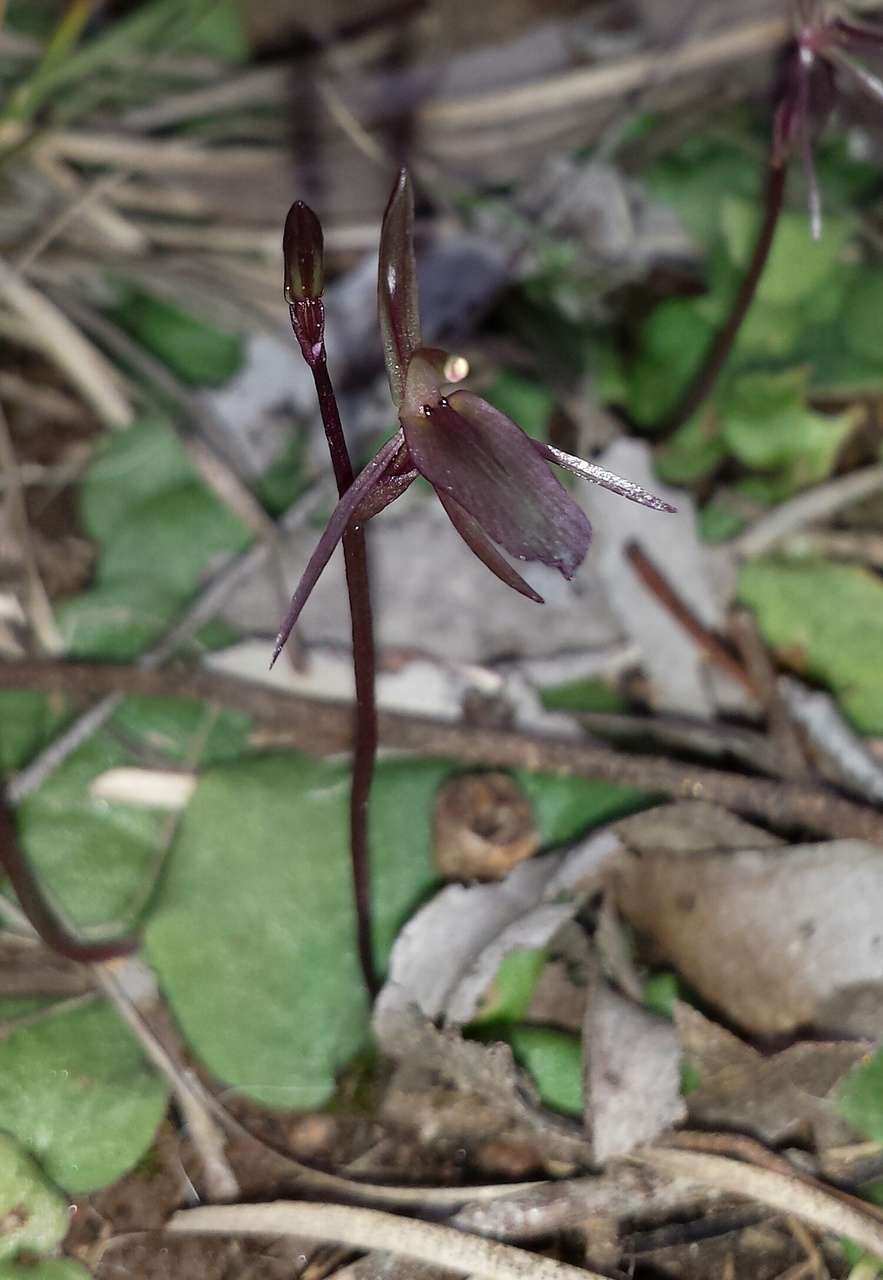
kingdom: Plantae
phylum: Tracheophyta
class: Liliopsida
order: Asparagales
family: Orchidaceae
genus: Cyrtostylis
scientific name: Cyrtostylis reniformis
